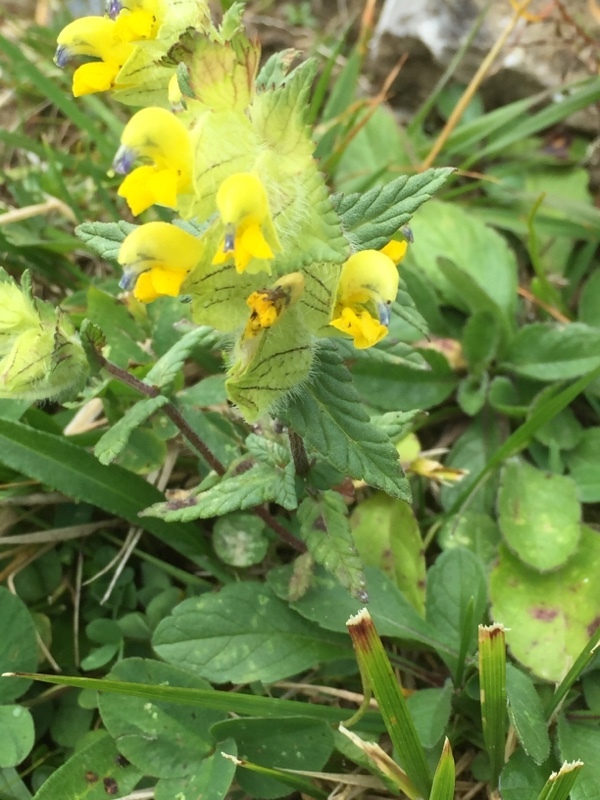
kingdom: Plantae
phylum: Tracheophyta
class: Magnoliopsida
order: Lamiales
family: Orobanchaceae
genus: Rhinanthus
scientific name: Rhinanthus alectorolophus
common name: Greater yellow-rattle
